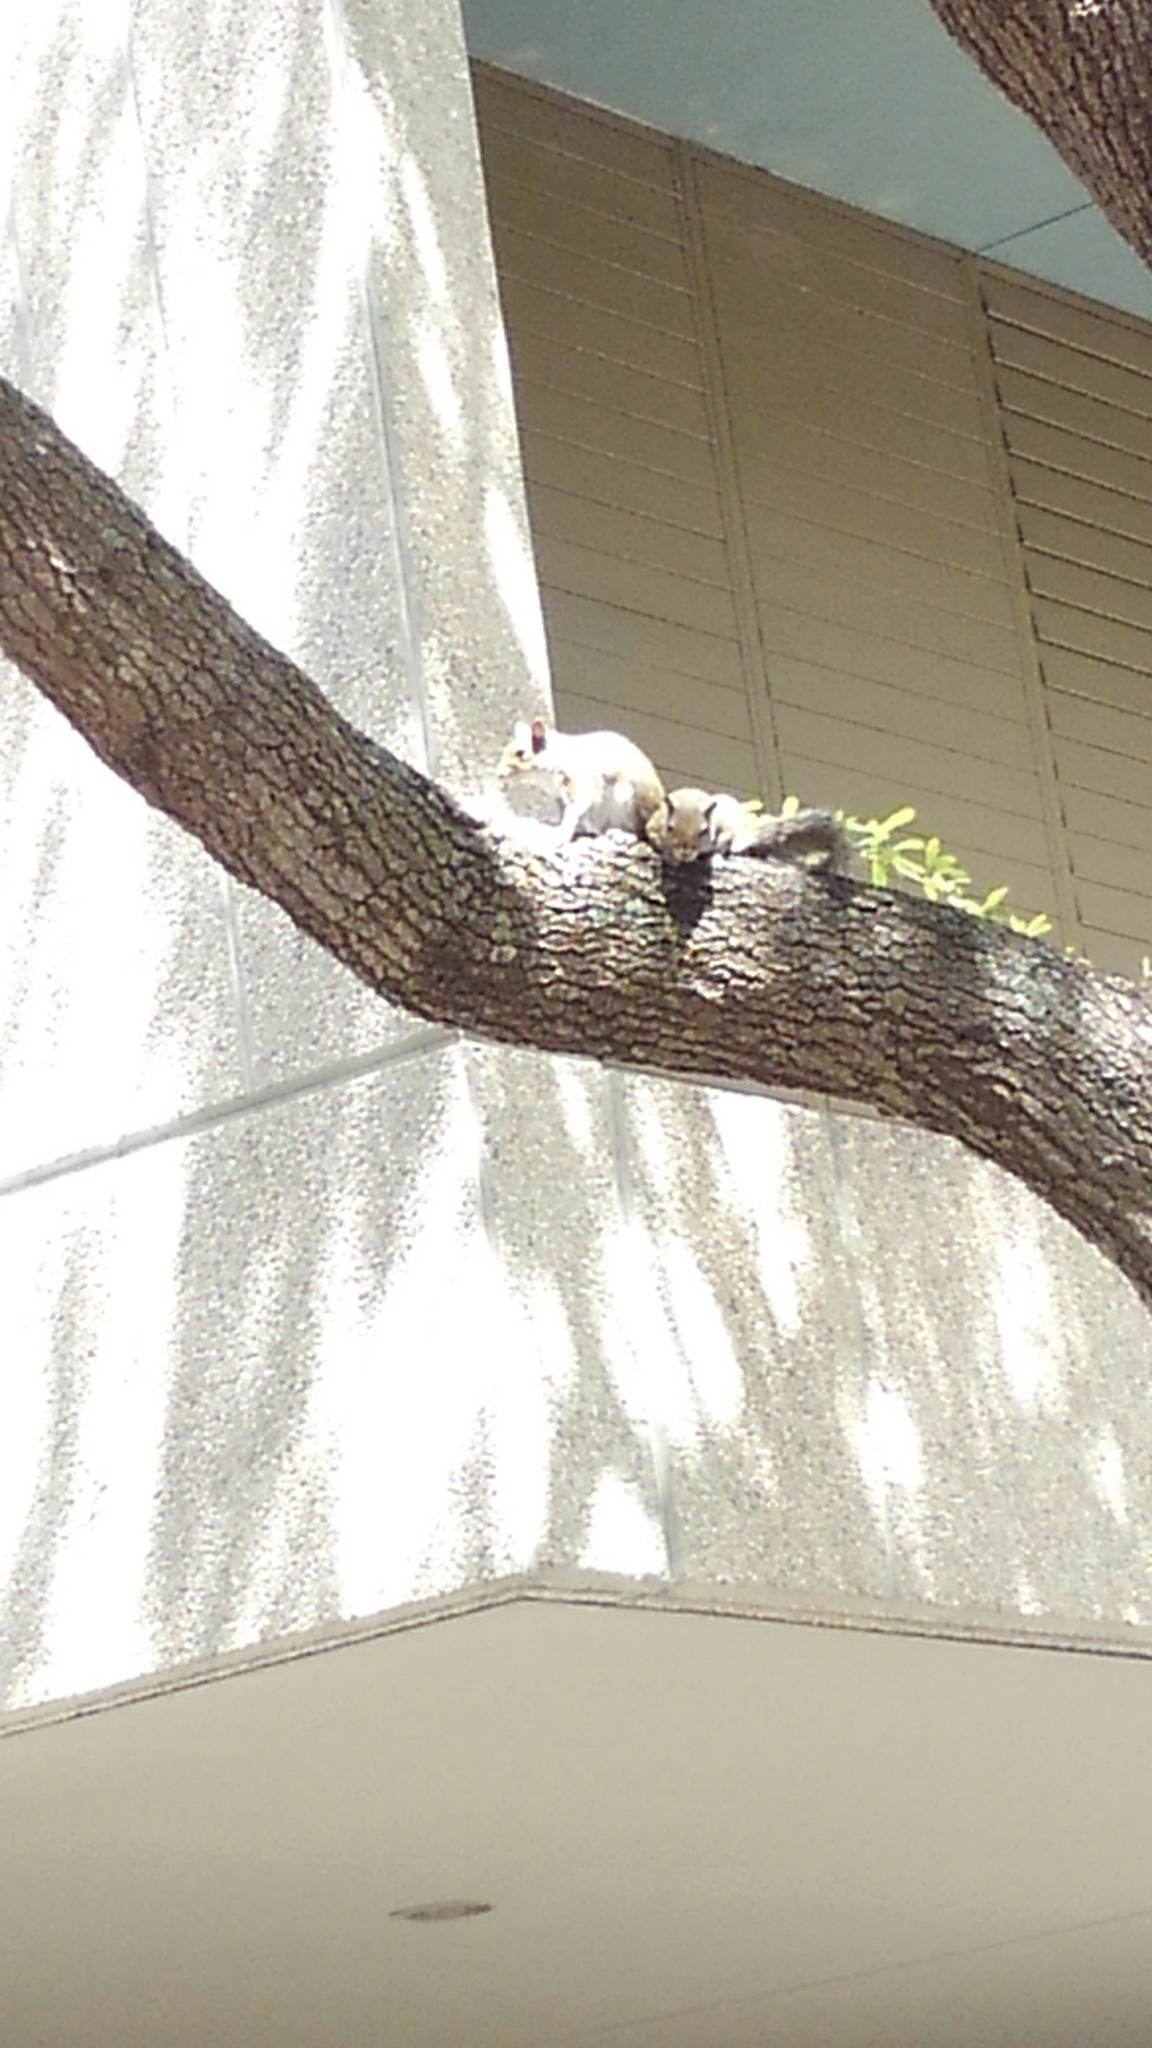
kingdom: Animalia
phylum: Chordata
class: Mammalia
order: Rodentia
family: Sciuridae
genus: Sciurus
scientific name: Sciurus carolinensis
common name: Eastern gray squirrel
